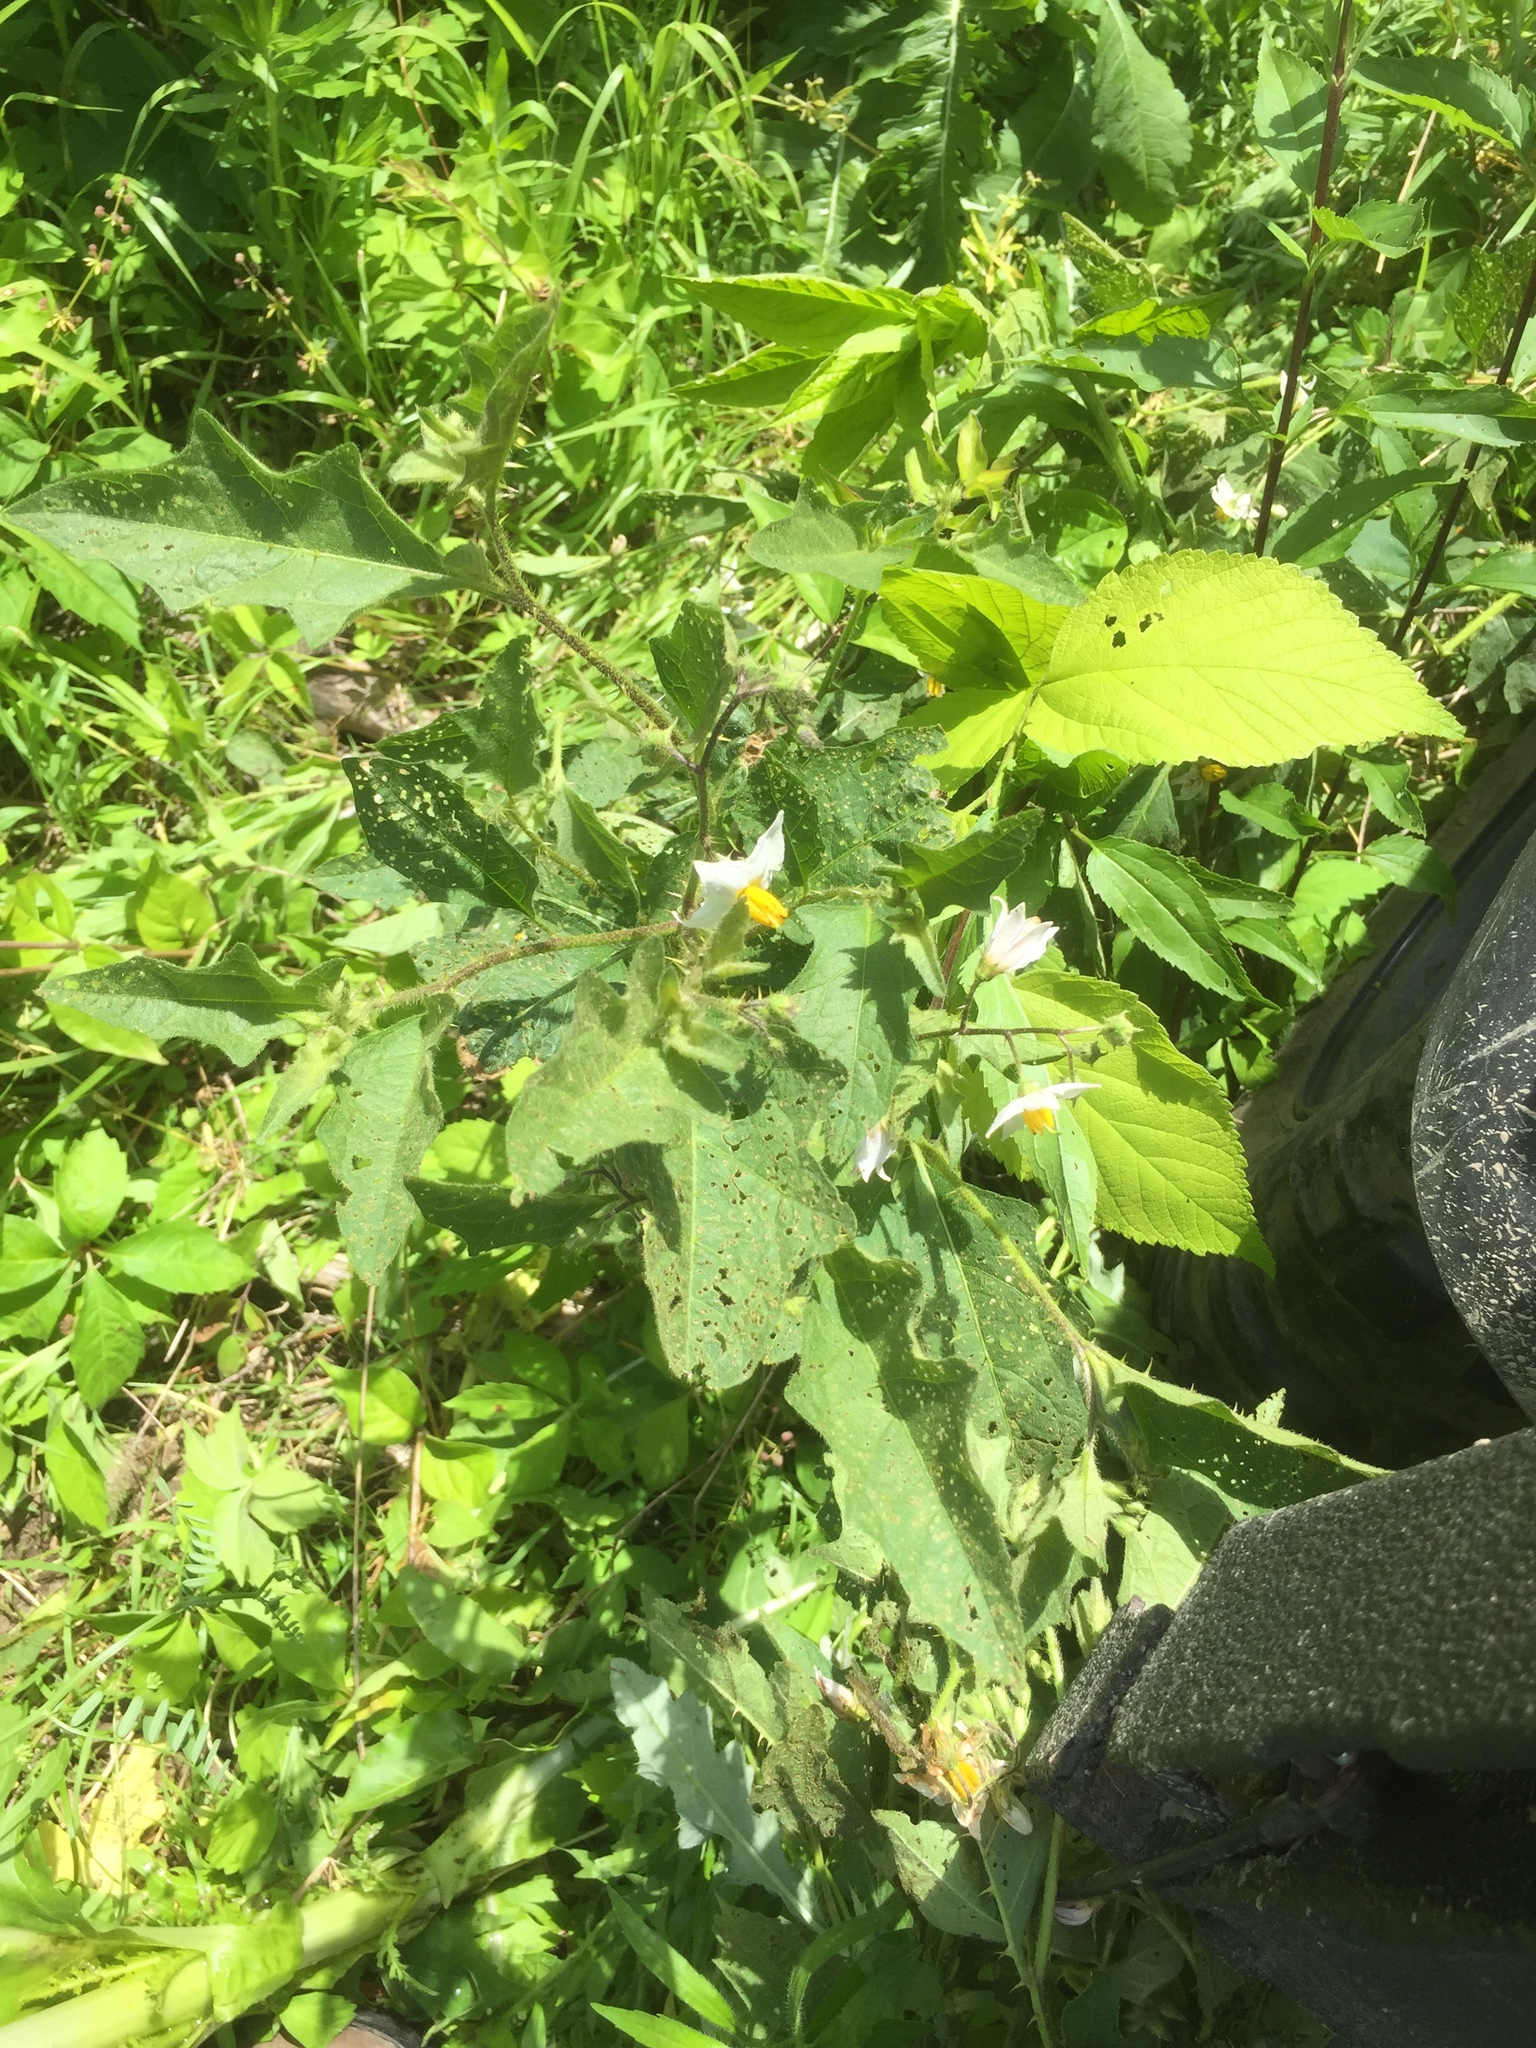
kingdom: Plantae
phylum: Tracheophyta
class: Magnoliopsida
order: Solanales
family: Solanaceae
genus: Solanum
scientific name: Solanum carolinense
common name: Horse-nettle
